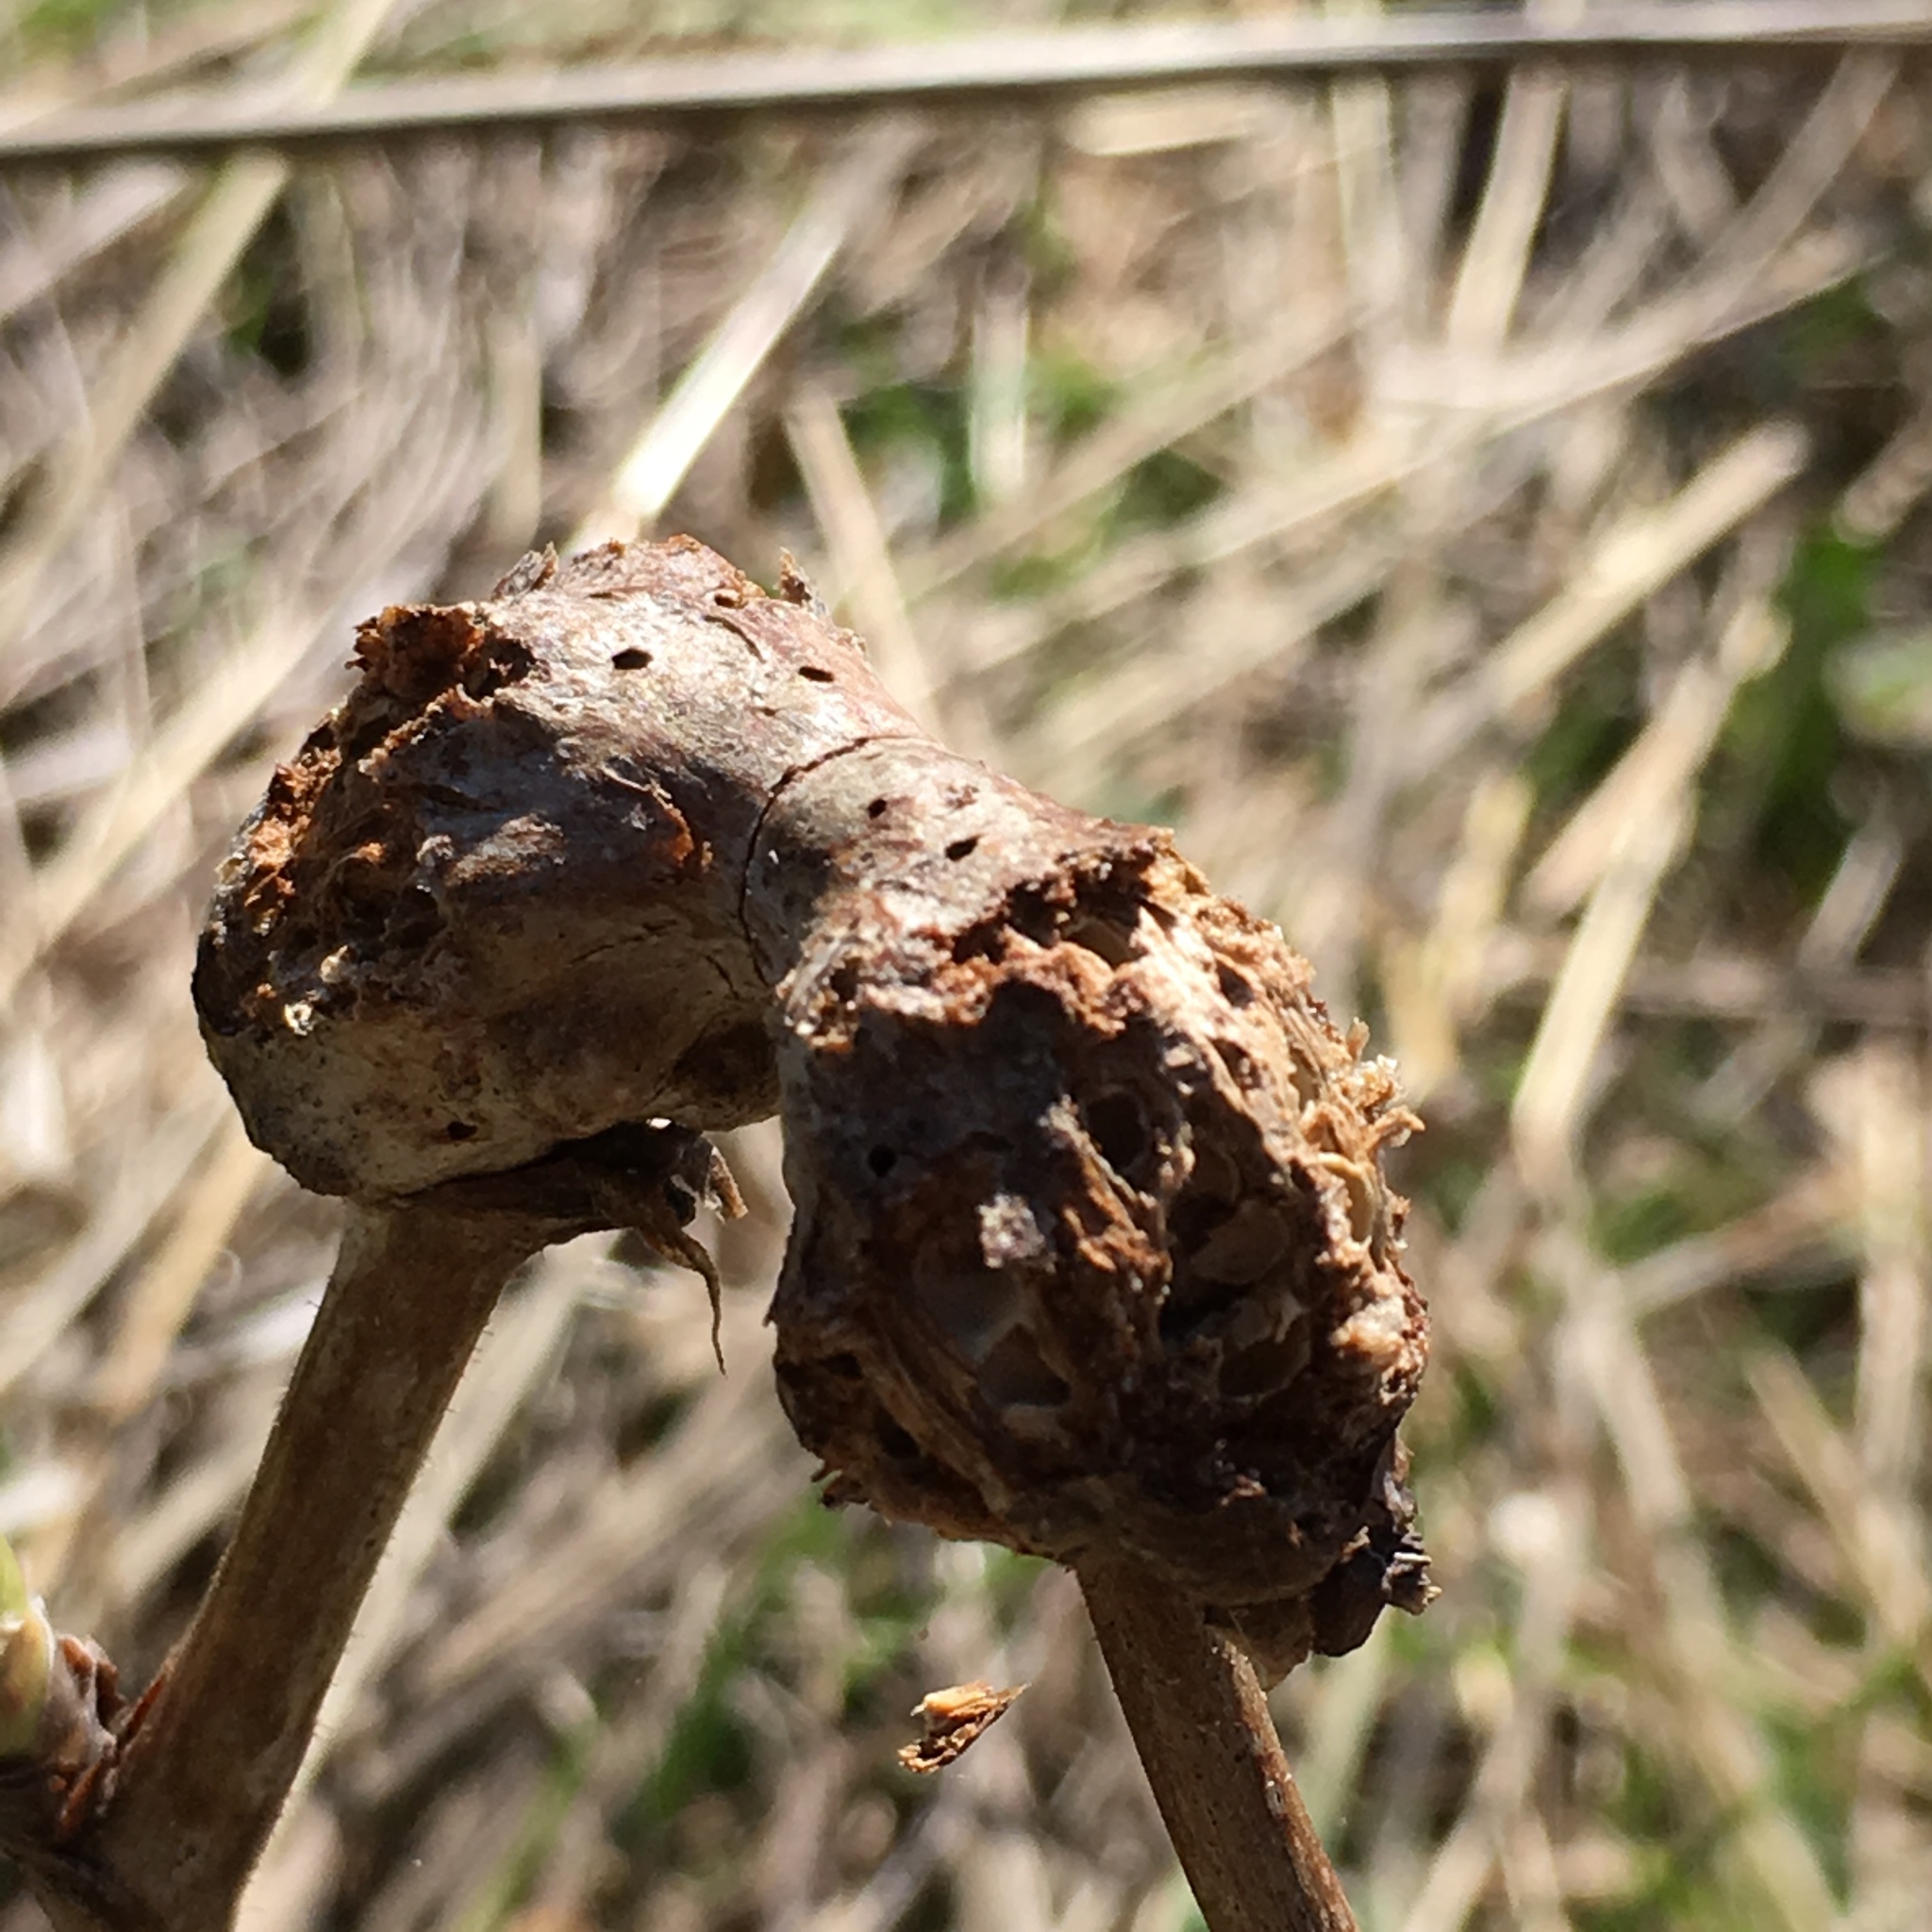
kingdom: Animalia
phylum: Arthropoda
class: Insecta
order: Hymenoptera
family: Cynipidae
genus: Diastrophus
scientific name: Diastrophus
